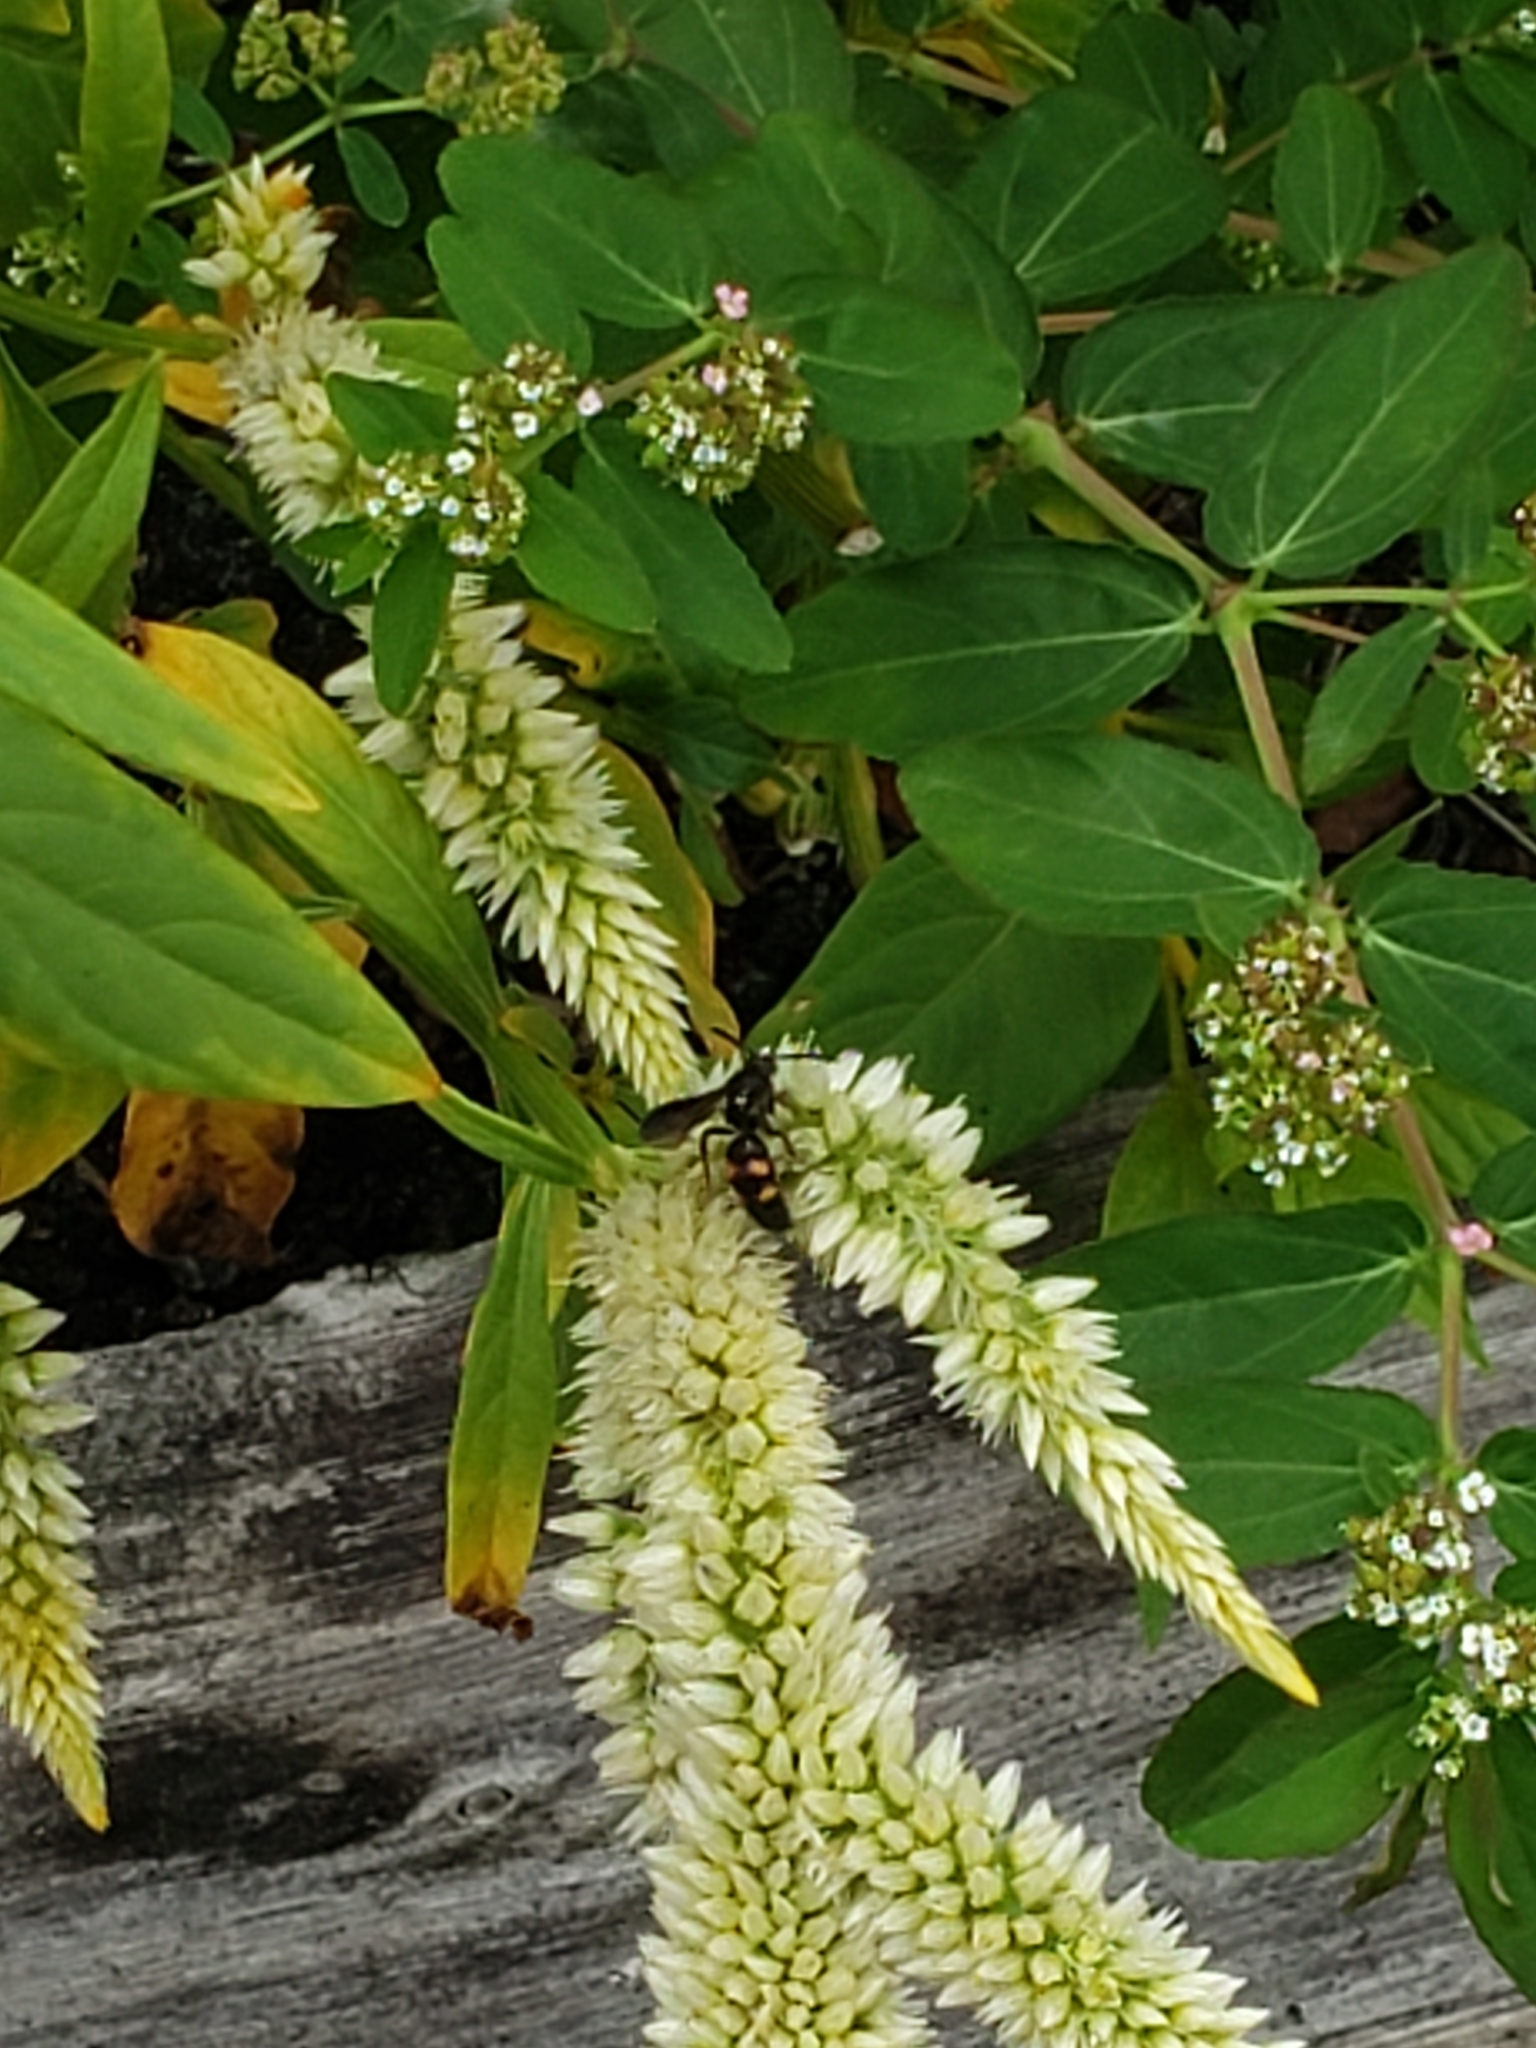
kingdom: Animalia
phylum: Arthropoda
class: Insecta
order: Hymenoptera
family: Scoliidae
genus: Scolia
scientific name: Scolia nobilitata
